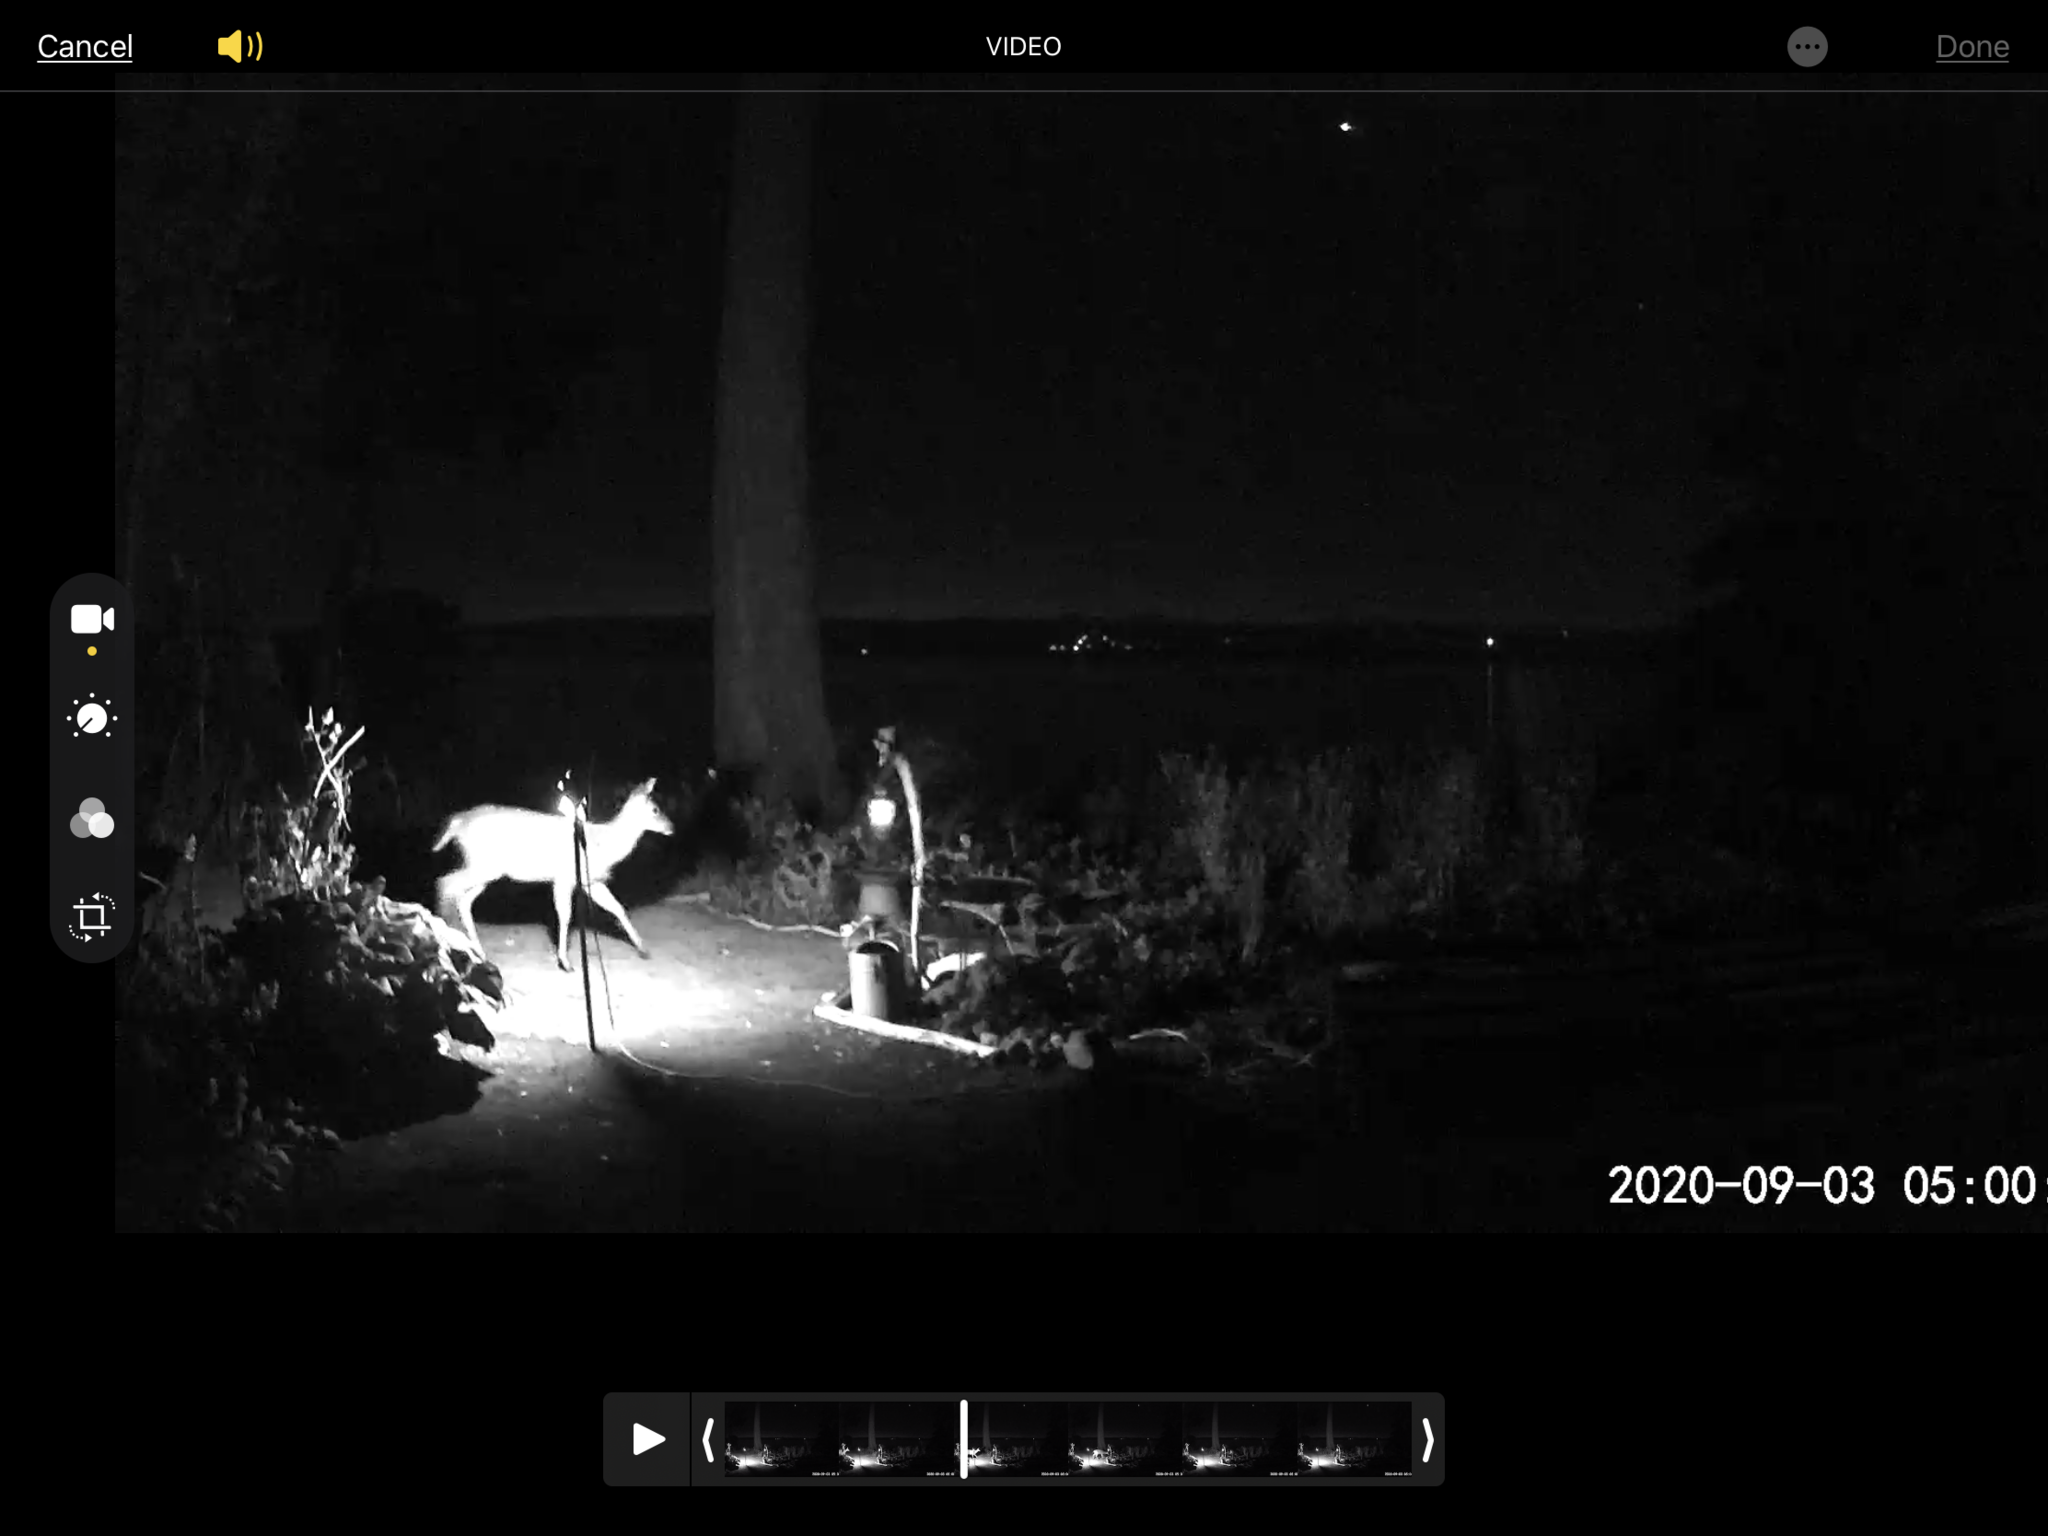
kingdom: Animalia
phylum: Chordata
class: Mammalia
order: Artiodactyla
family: Cervidae
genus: Odocoileus
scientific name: Odocoileus hemionus
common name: Mule deer
